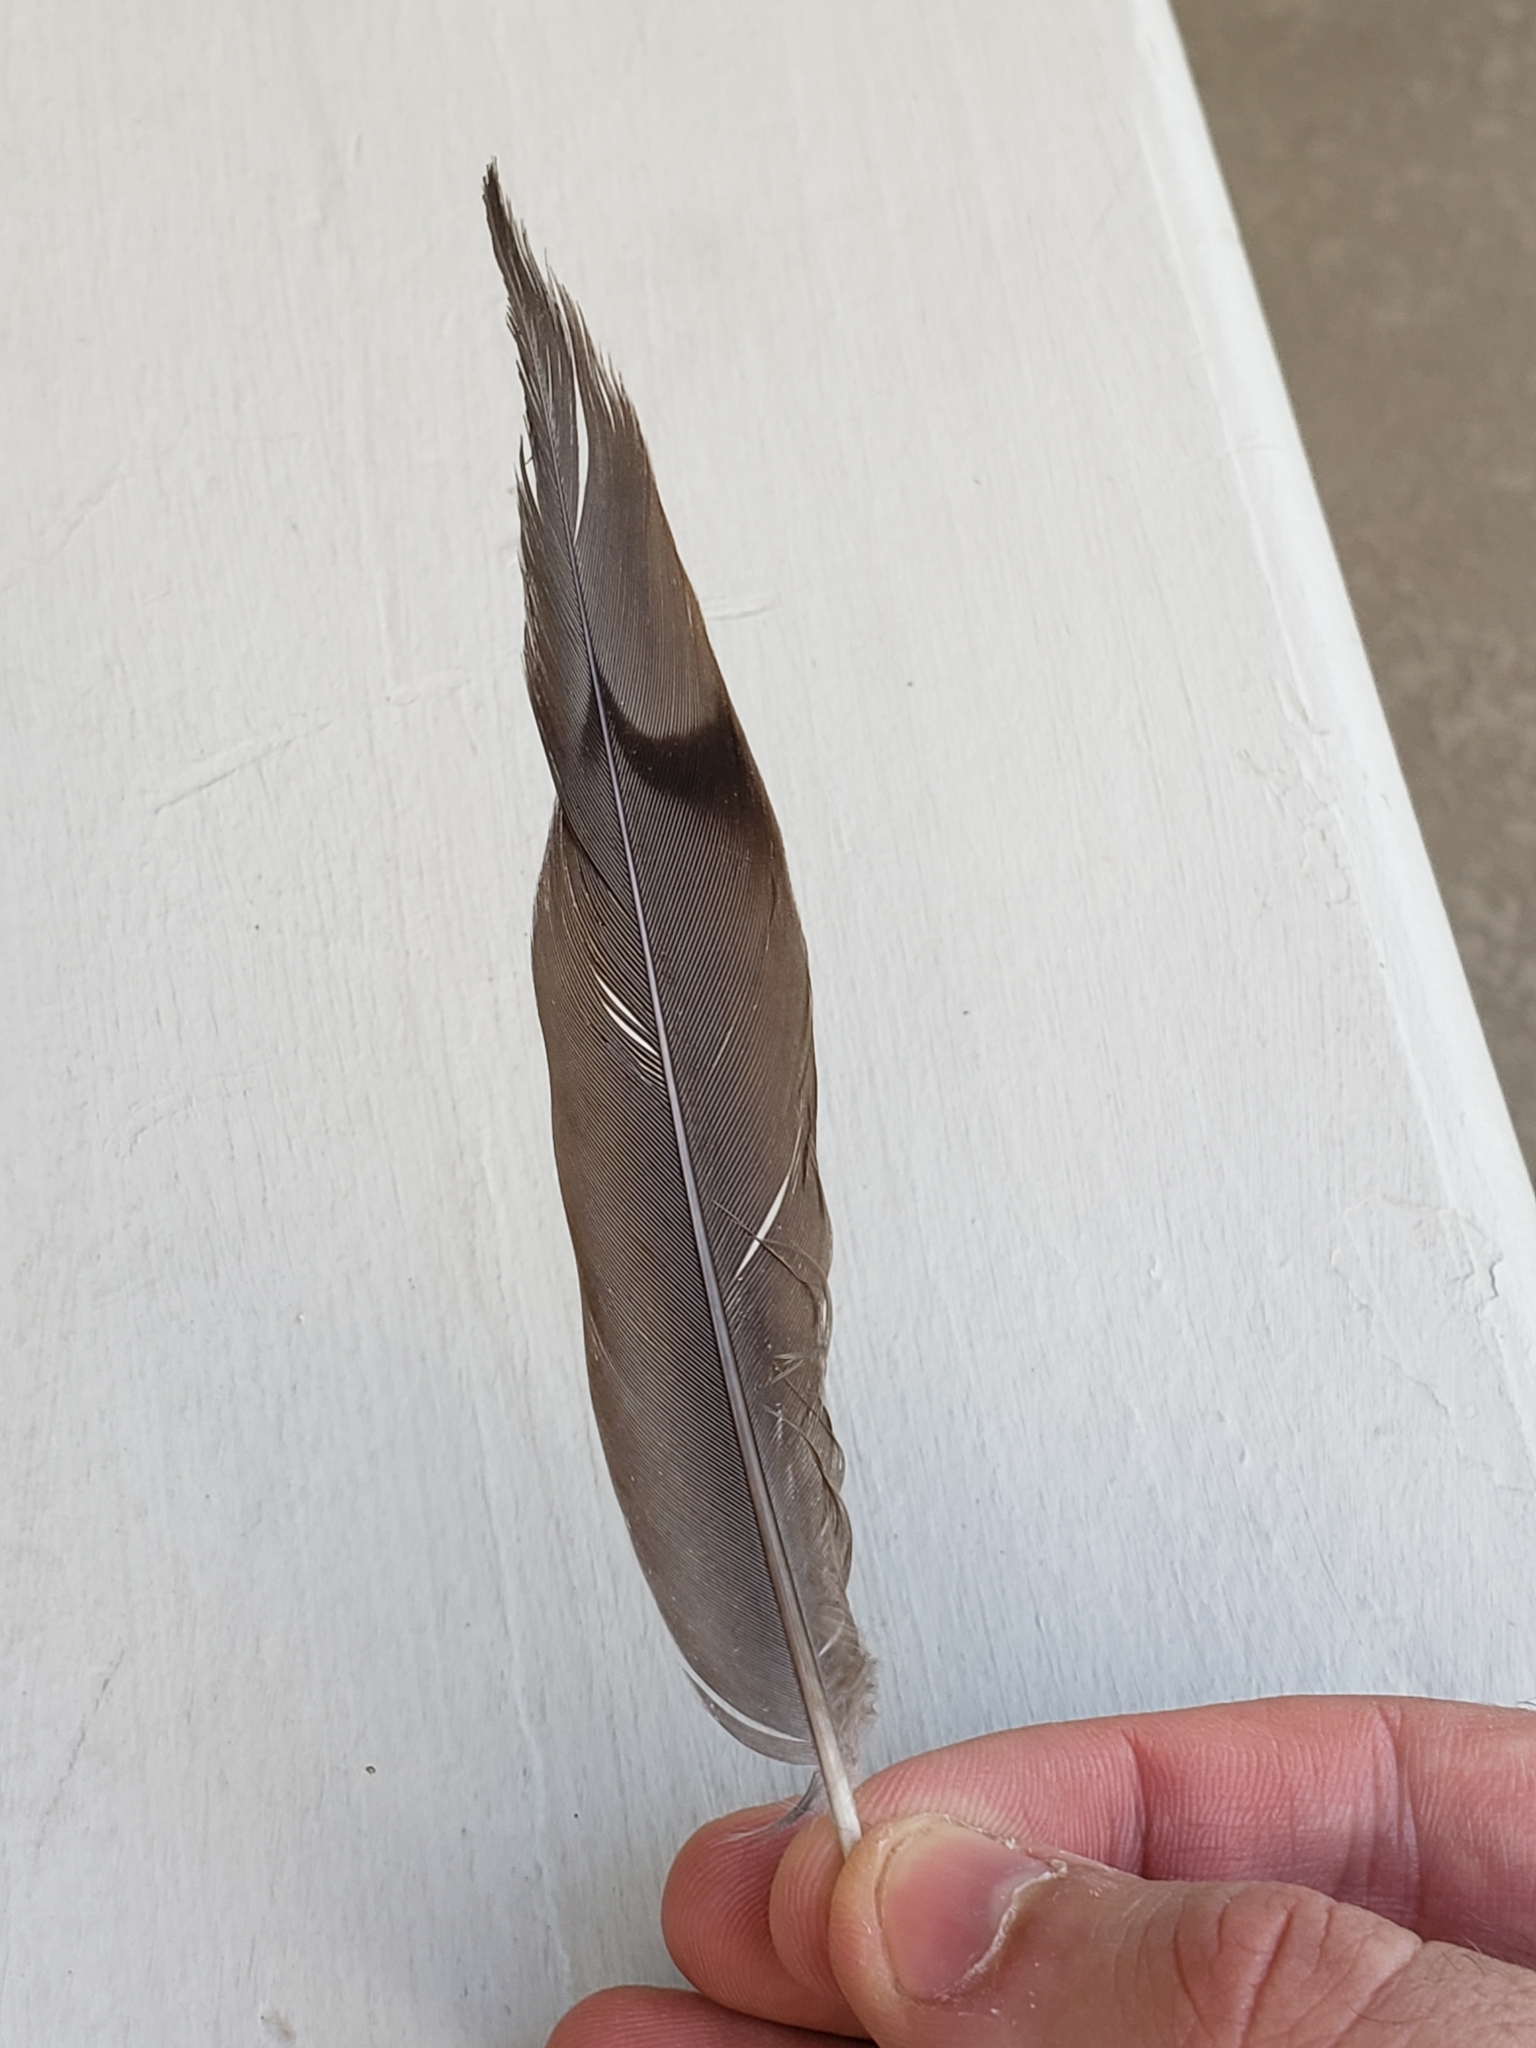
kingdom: Animalia
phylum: Chordata
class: Aves
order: Columbiformes
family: Columbidae
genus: Zenaida
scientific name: Zenaida macroura
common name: Mourning dove
